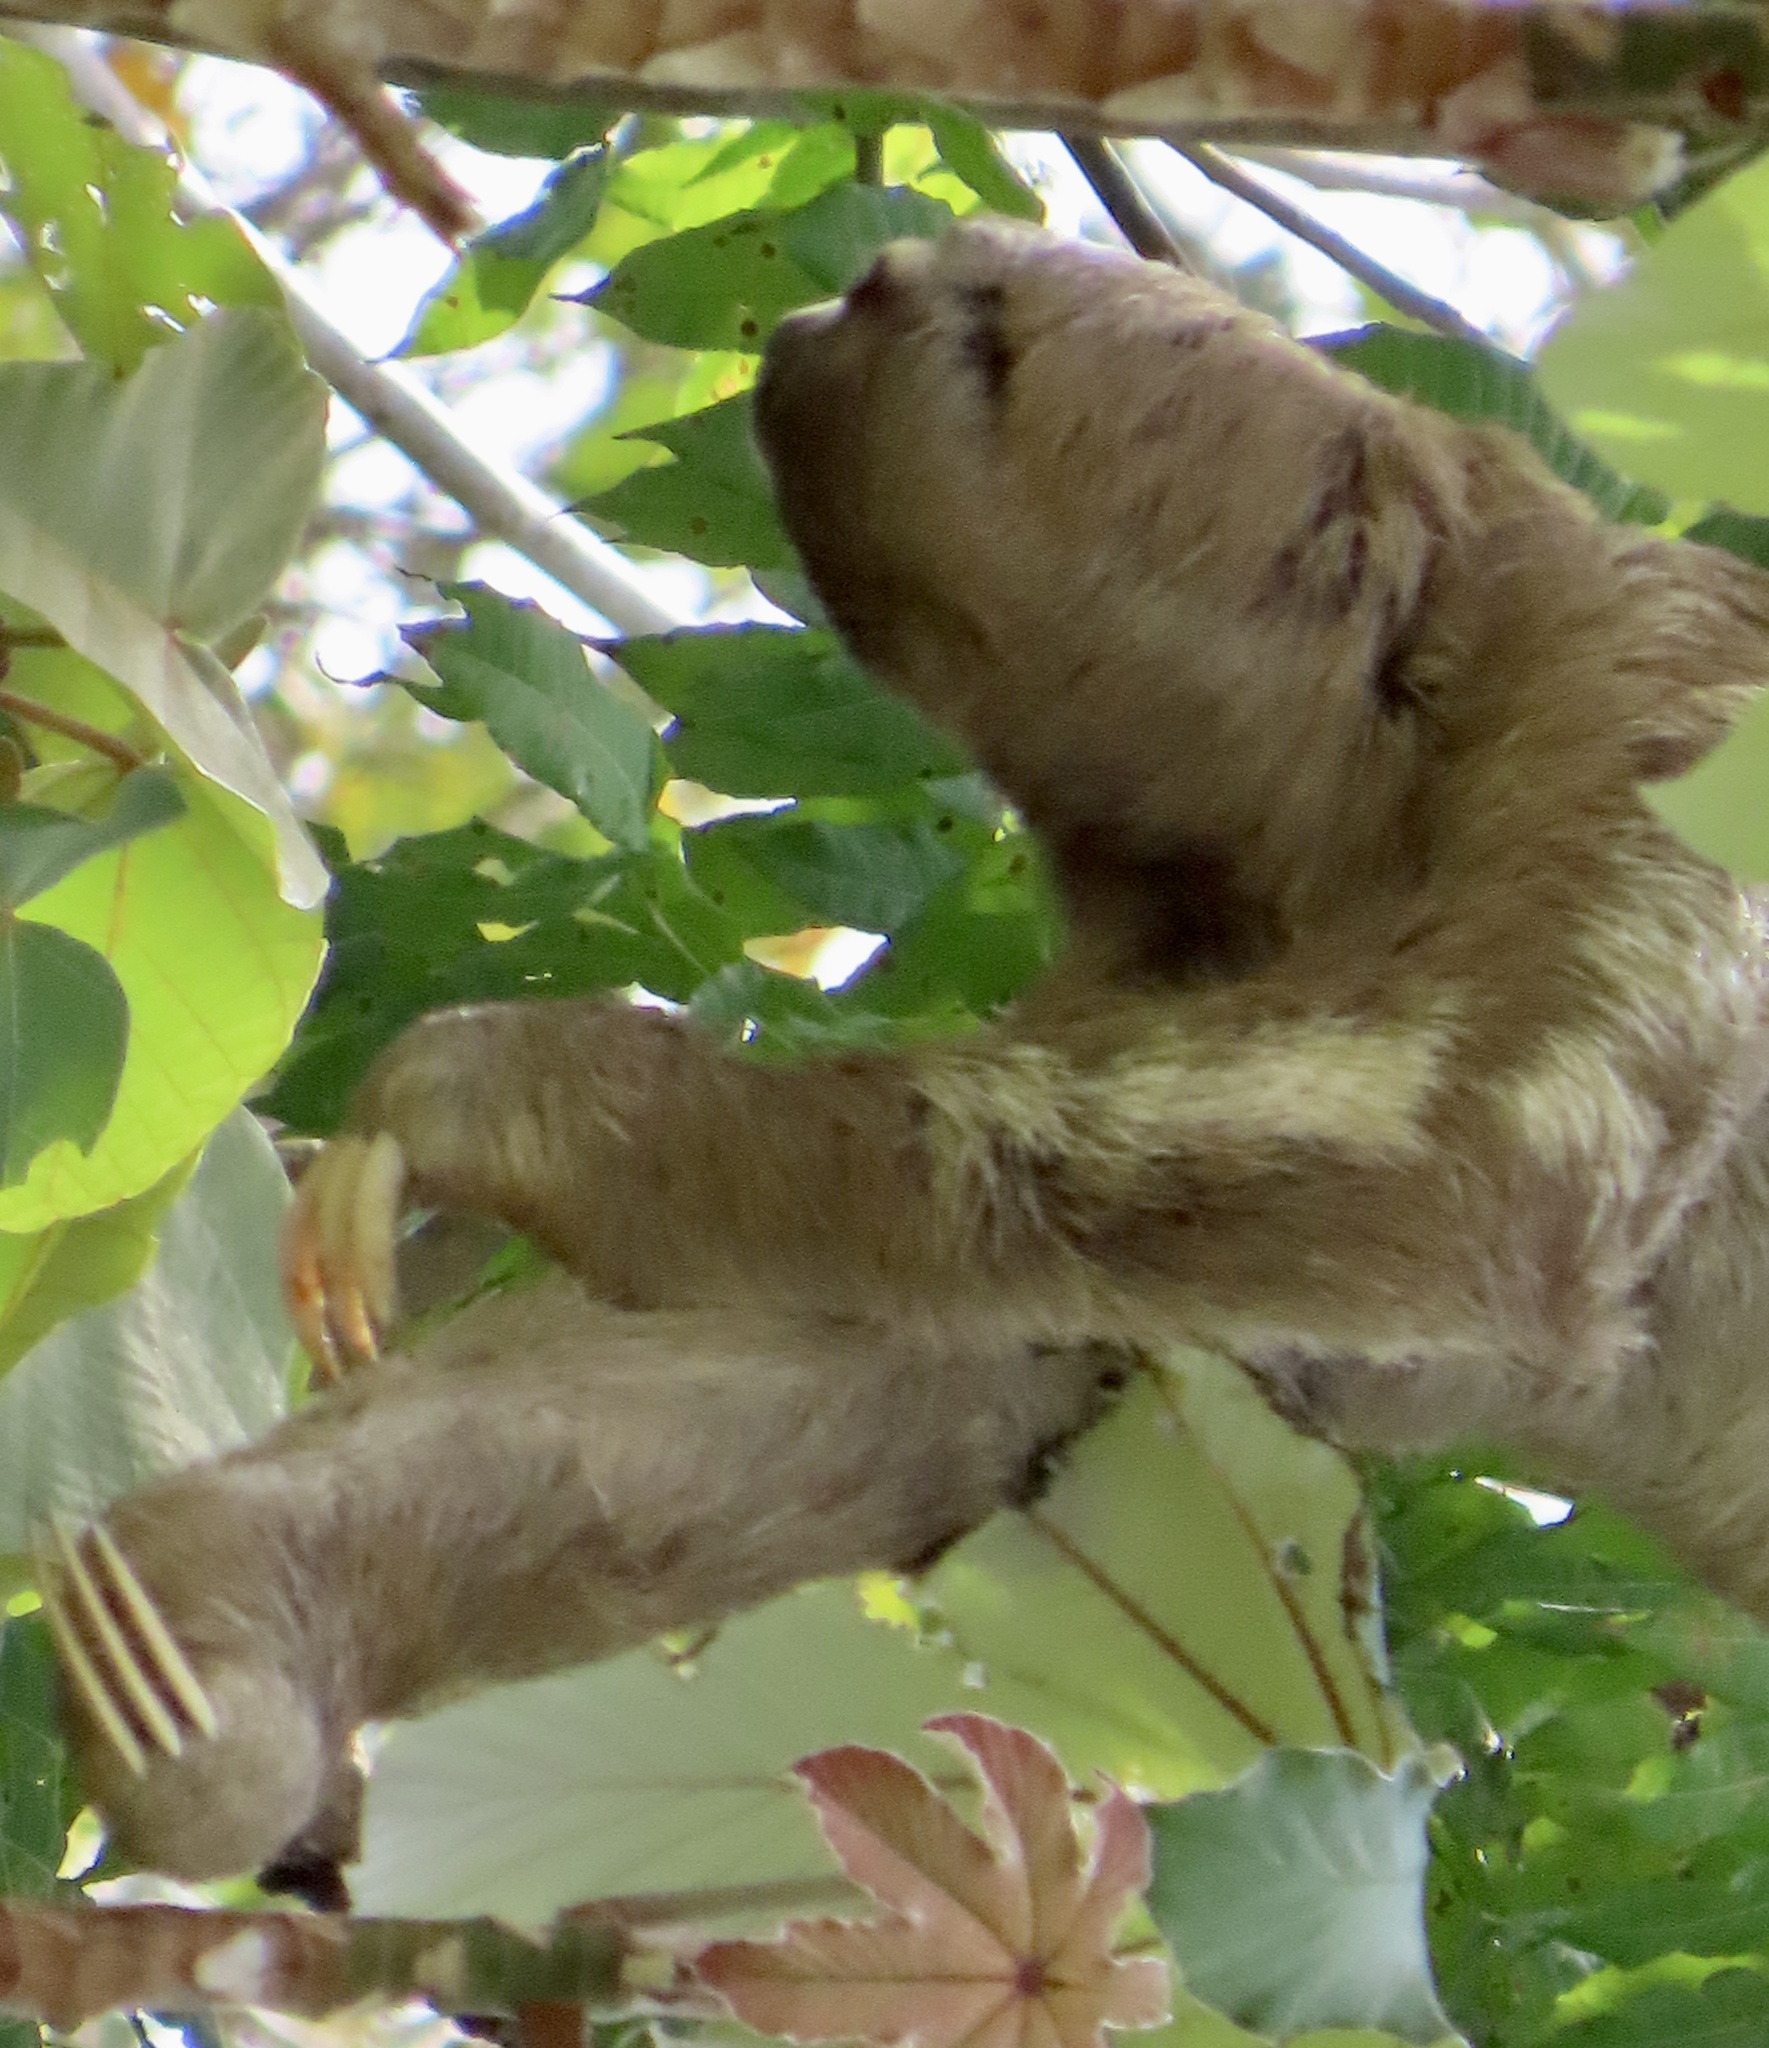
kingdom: Animalia
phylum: Chordata
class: Mammalia
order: Pilosa
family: Bradypodidae
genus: Bradypus
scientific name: Bradypus variegatus
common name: Brown-throated three-toed sloth
